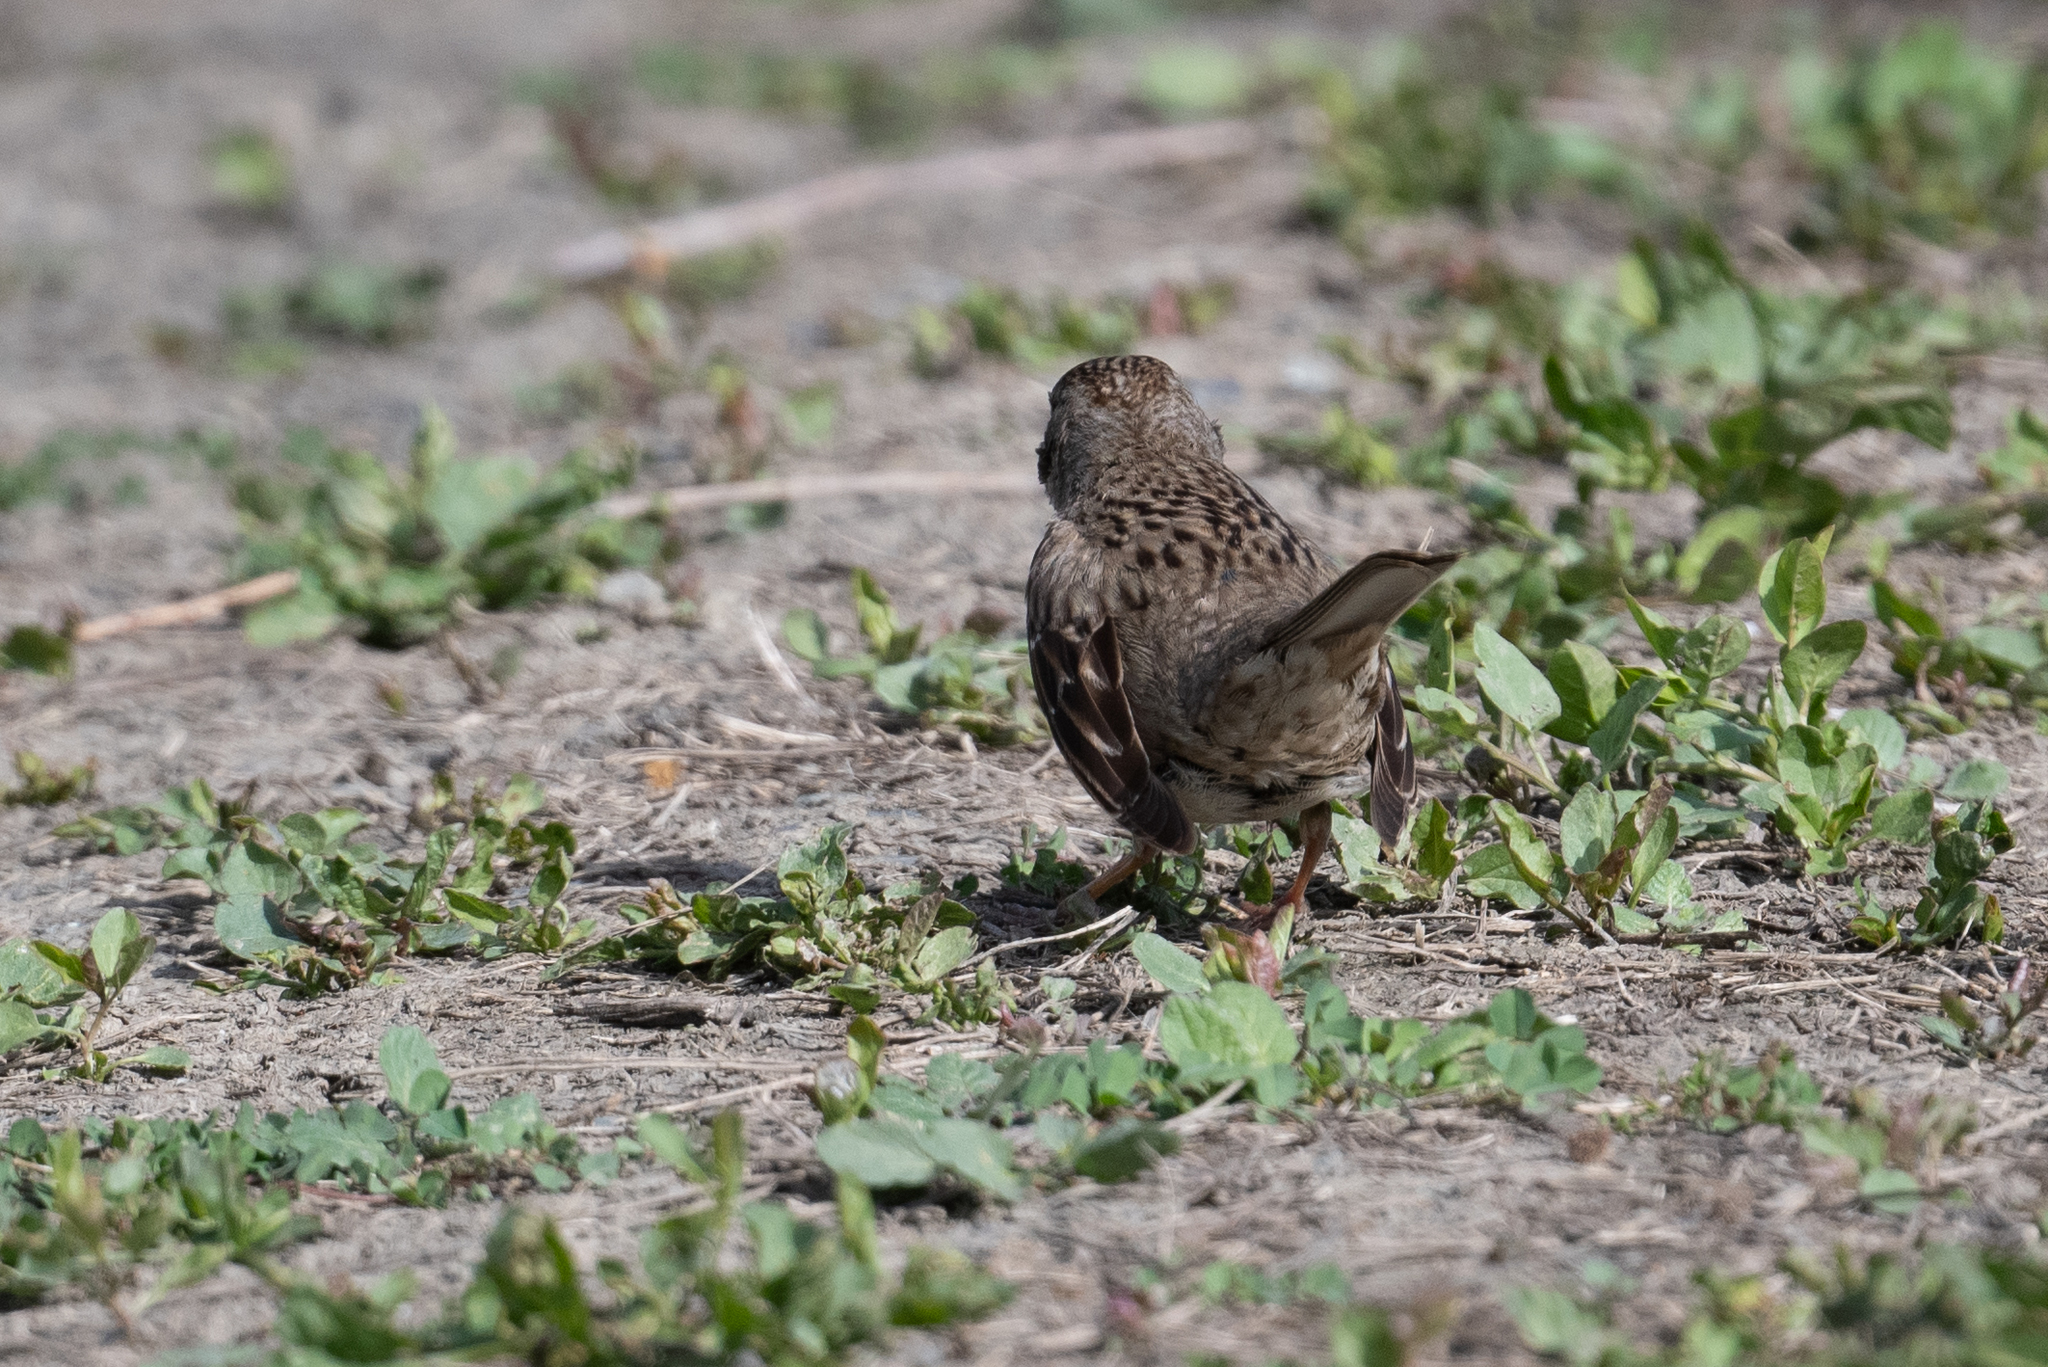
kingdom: Animalia
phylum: Chordata
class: Aves
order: Passeriformes
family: Passerellidae
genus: Zonotrichia
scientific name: Zonotrichia atricapilla
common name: Golden-crowned sparrow
